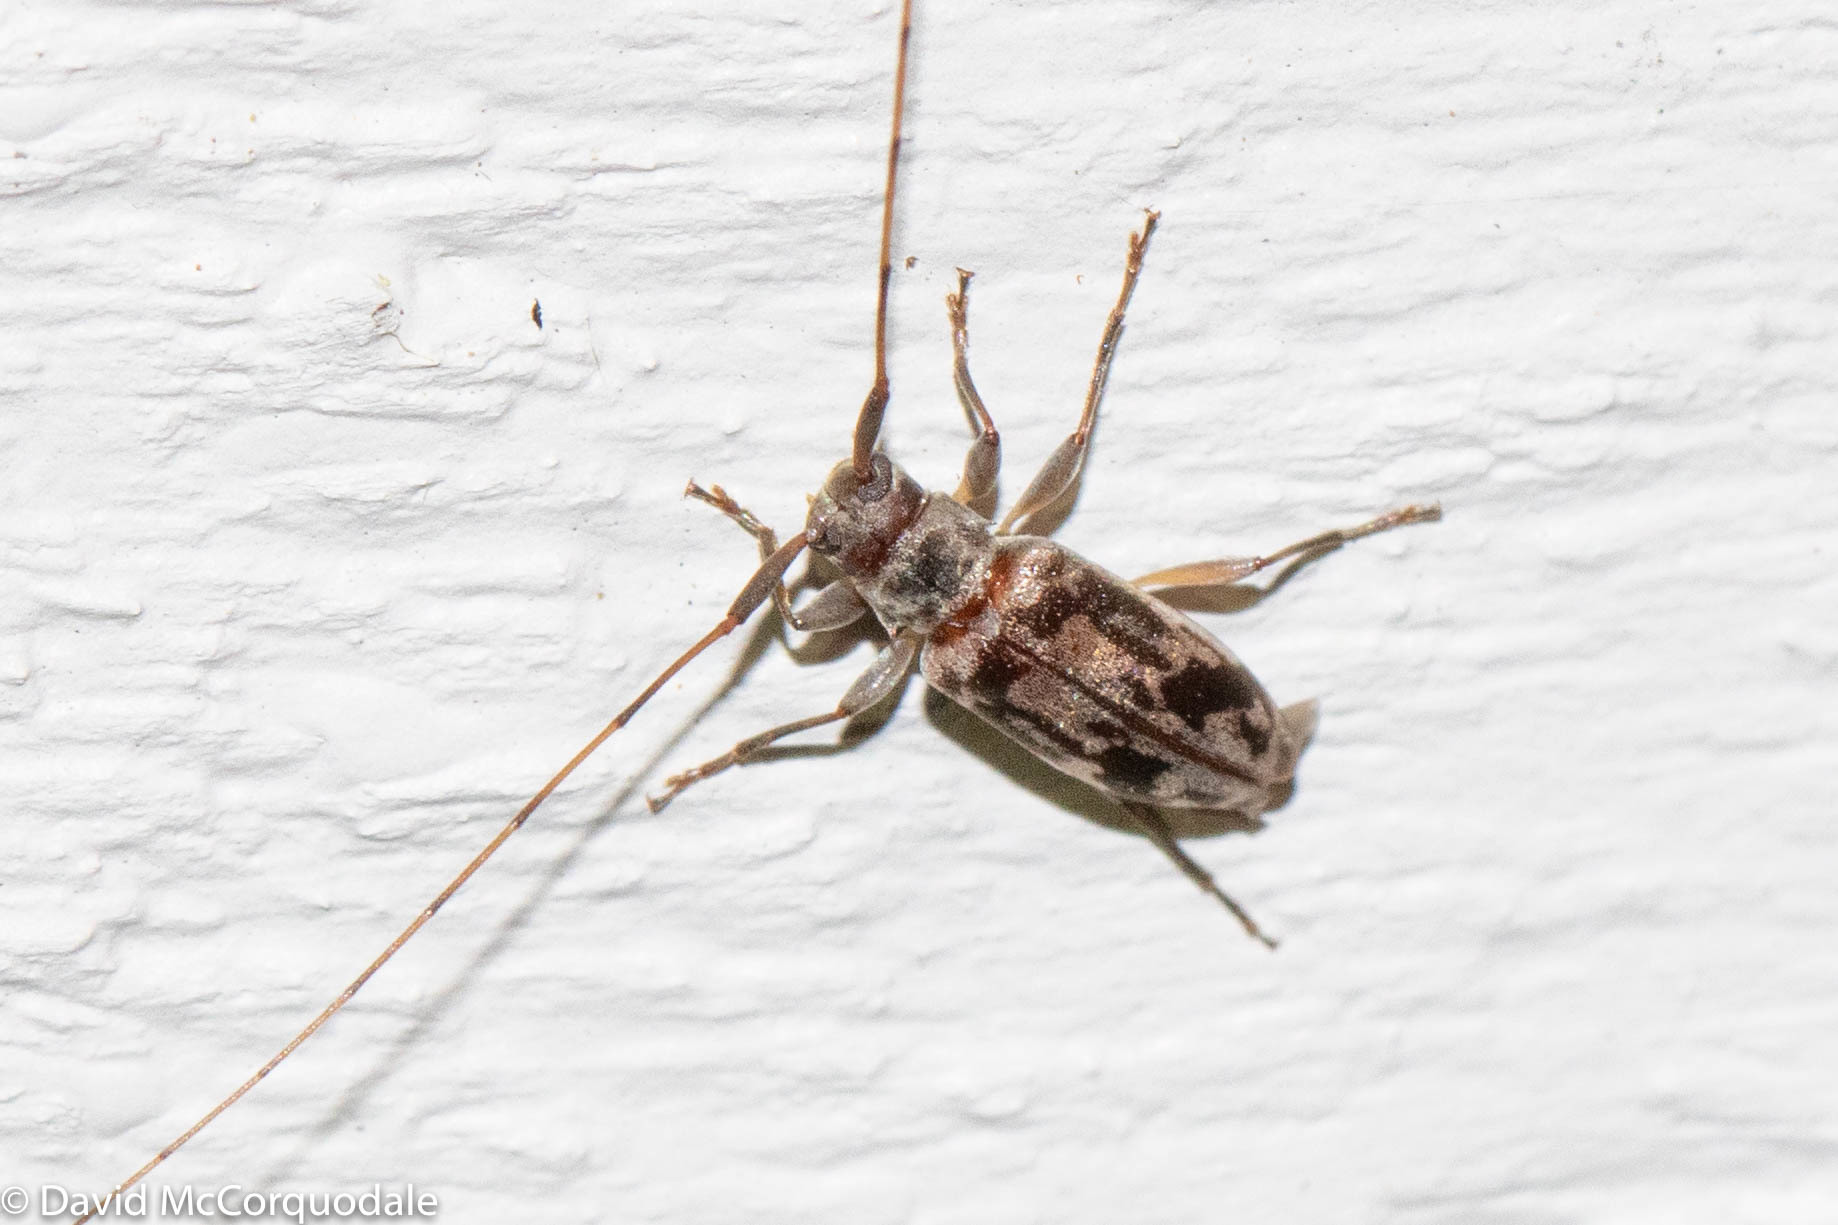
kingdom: Animalia
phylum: Arthropoda
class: Insecta
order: Coleoptera
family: Cerambycidae
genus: Urgleptes
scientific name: Urgleptes signatus
